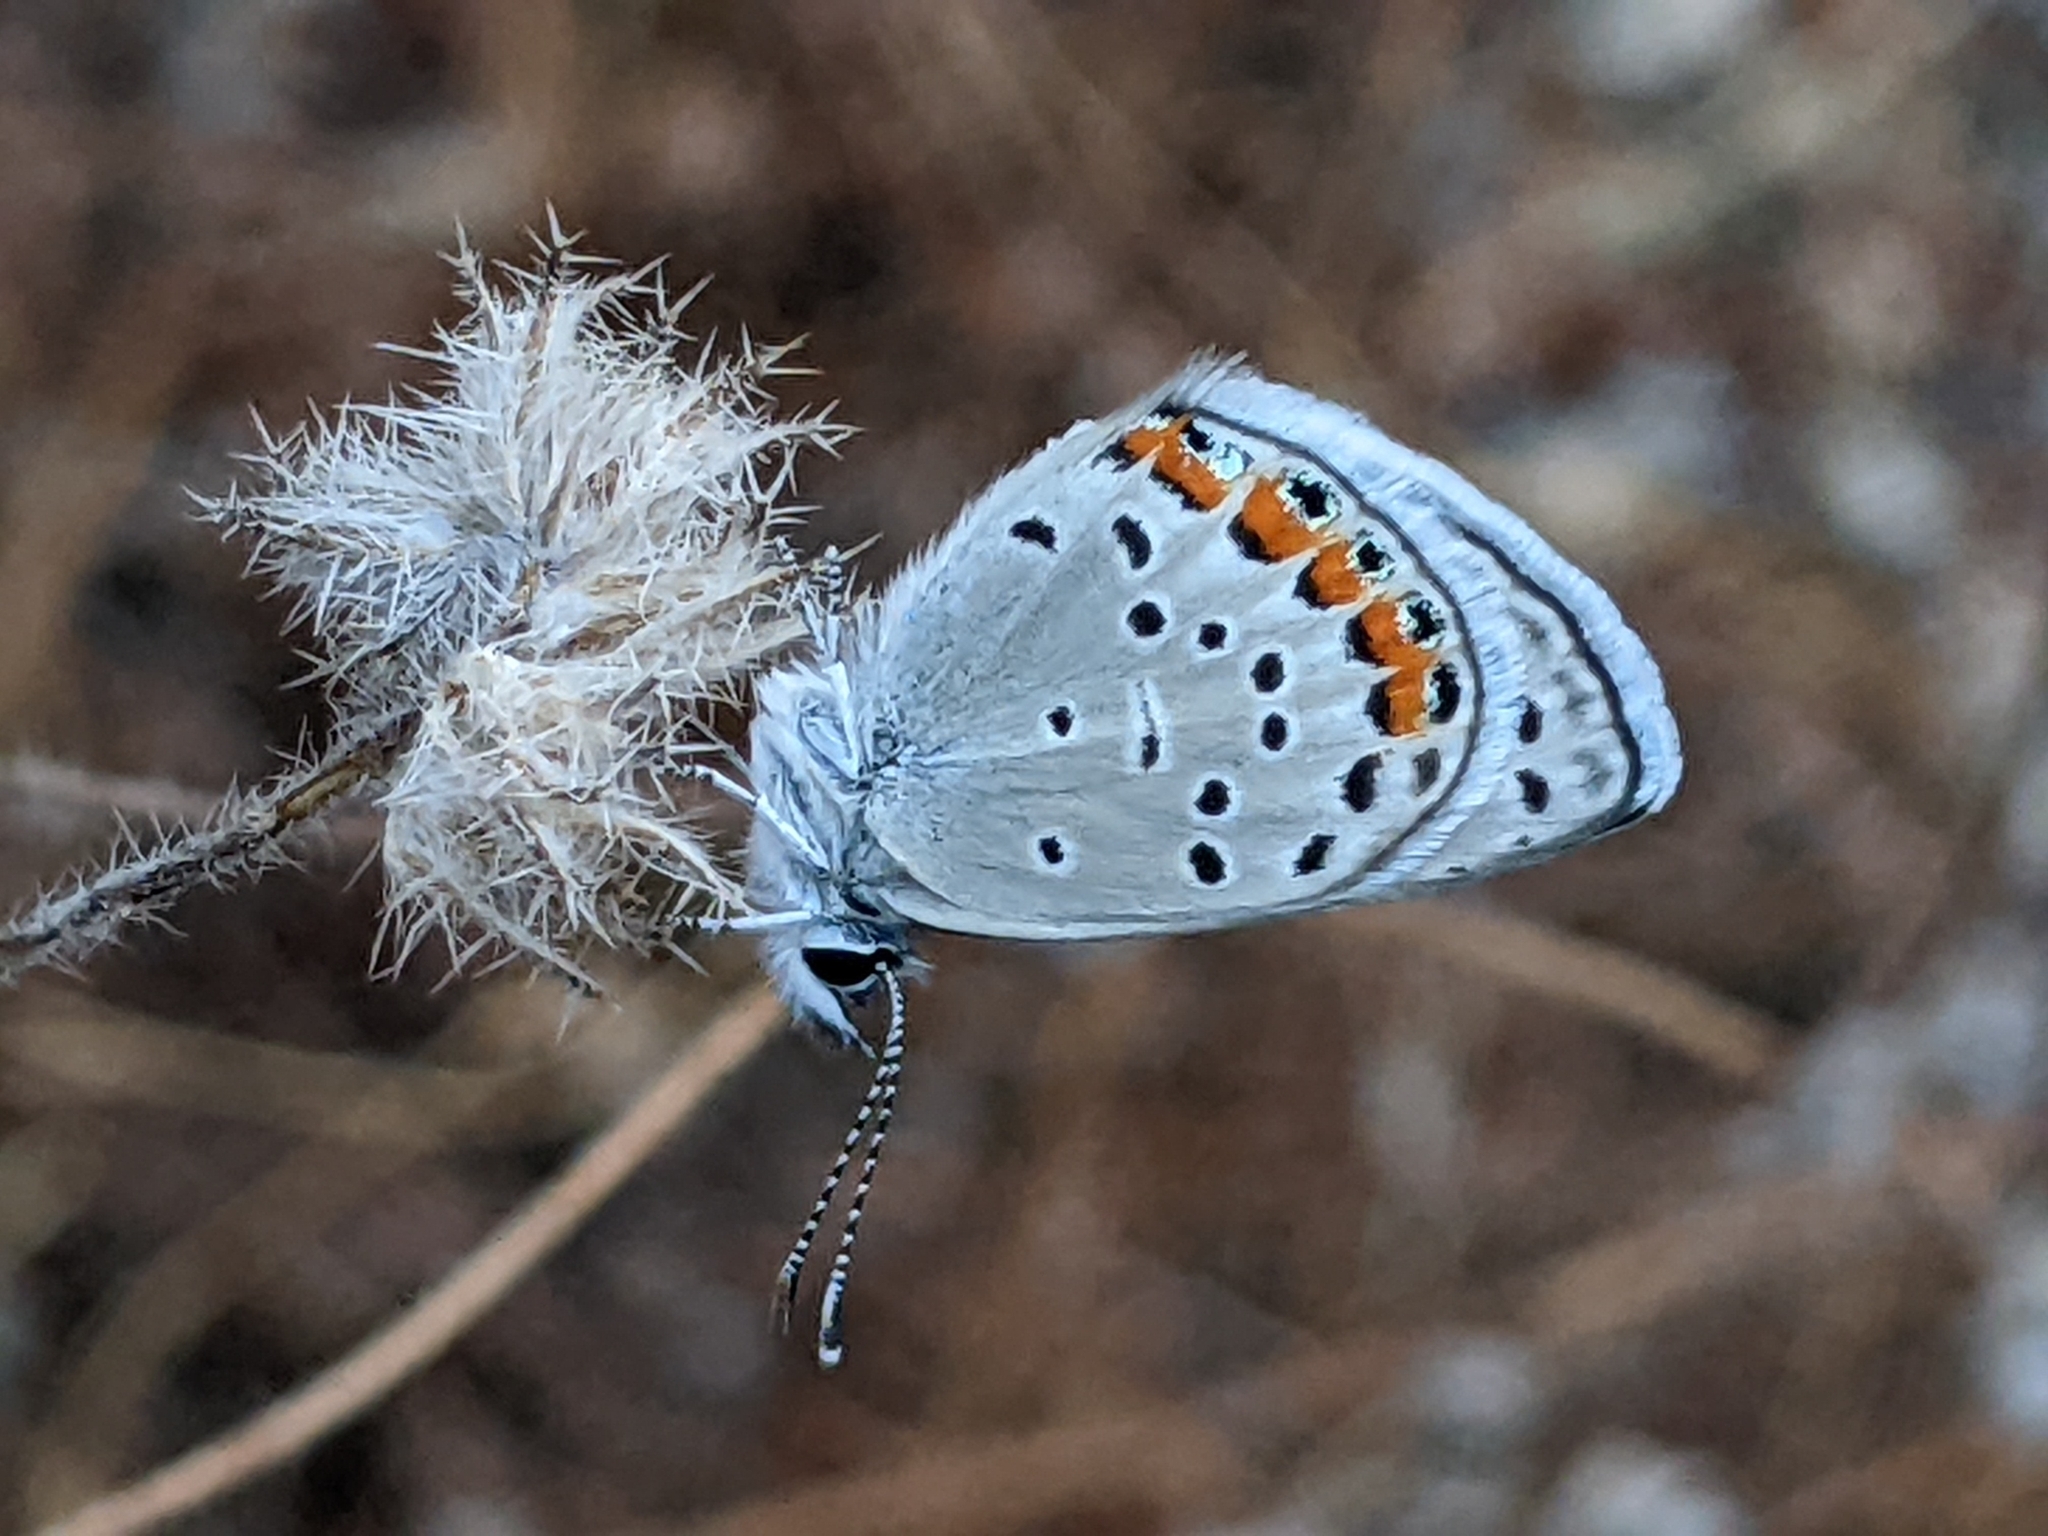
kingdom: Animalia
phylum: Arthropoda
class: Insecta
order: Lepidoptera
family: Lycaenidae
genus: Icaricia
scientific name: Icaricia acmon
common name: Acmon blue
